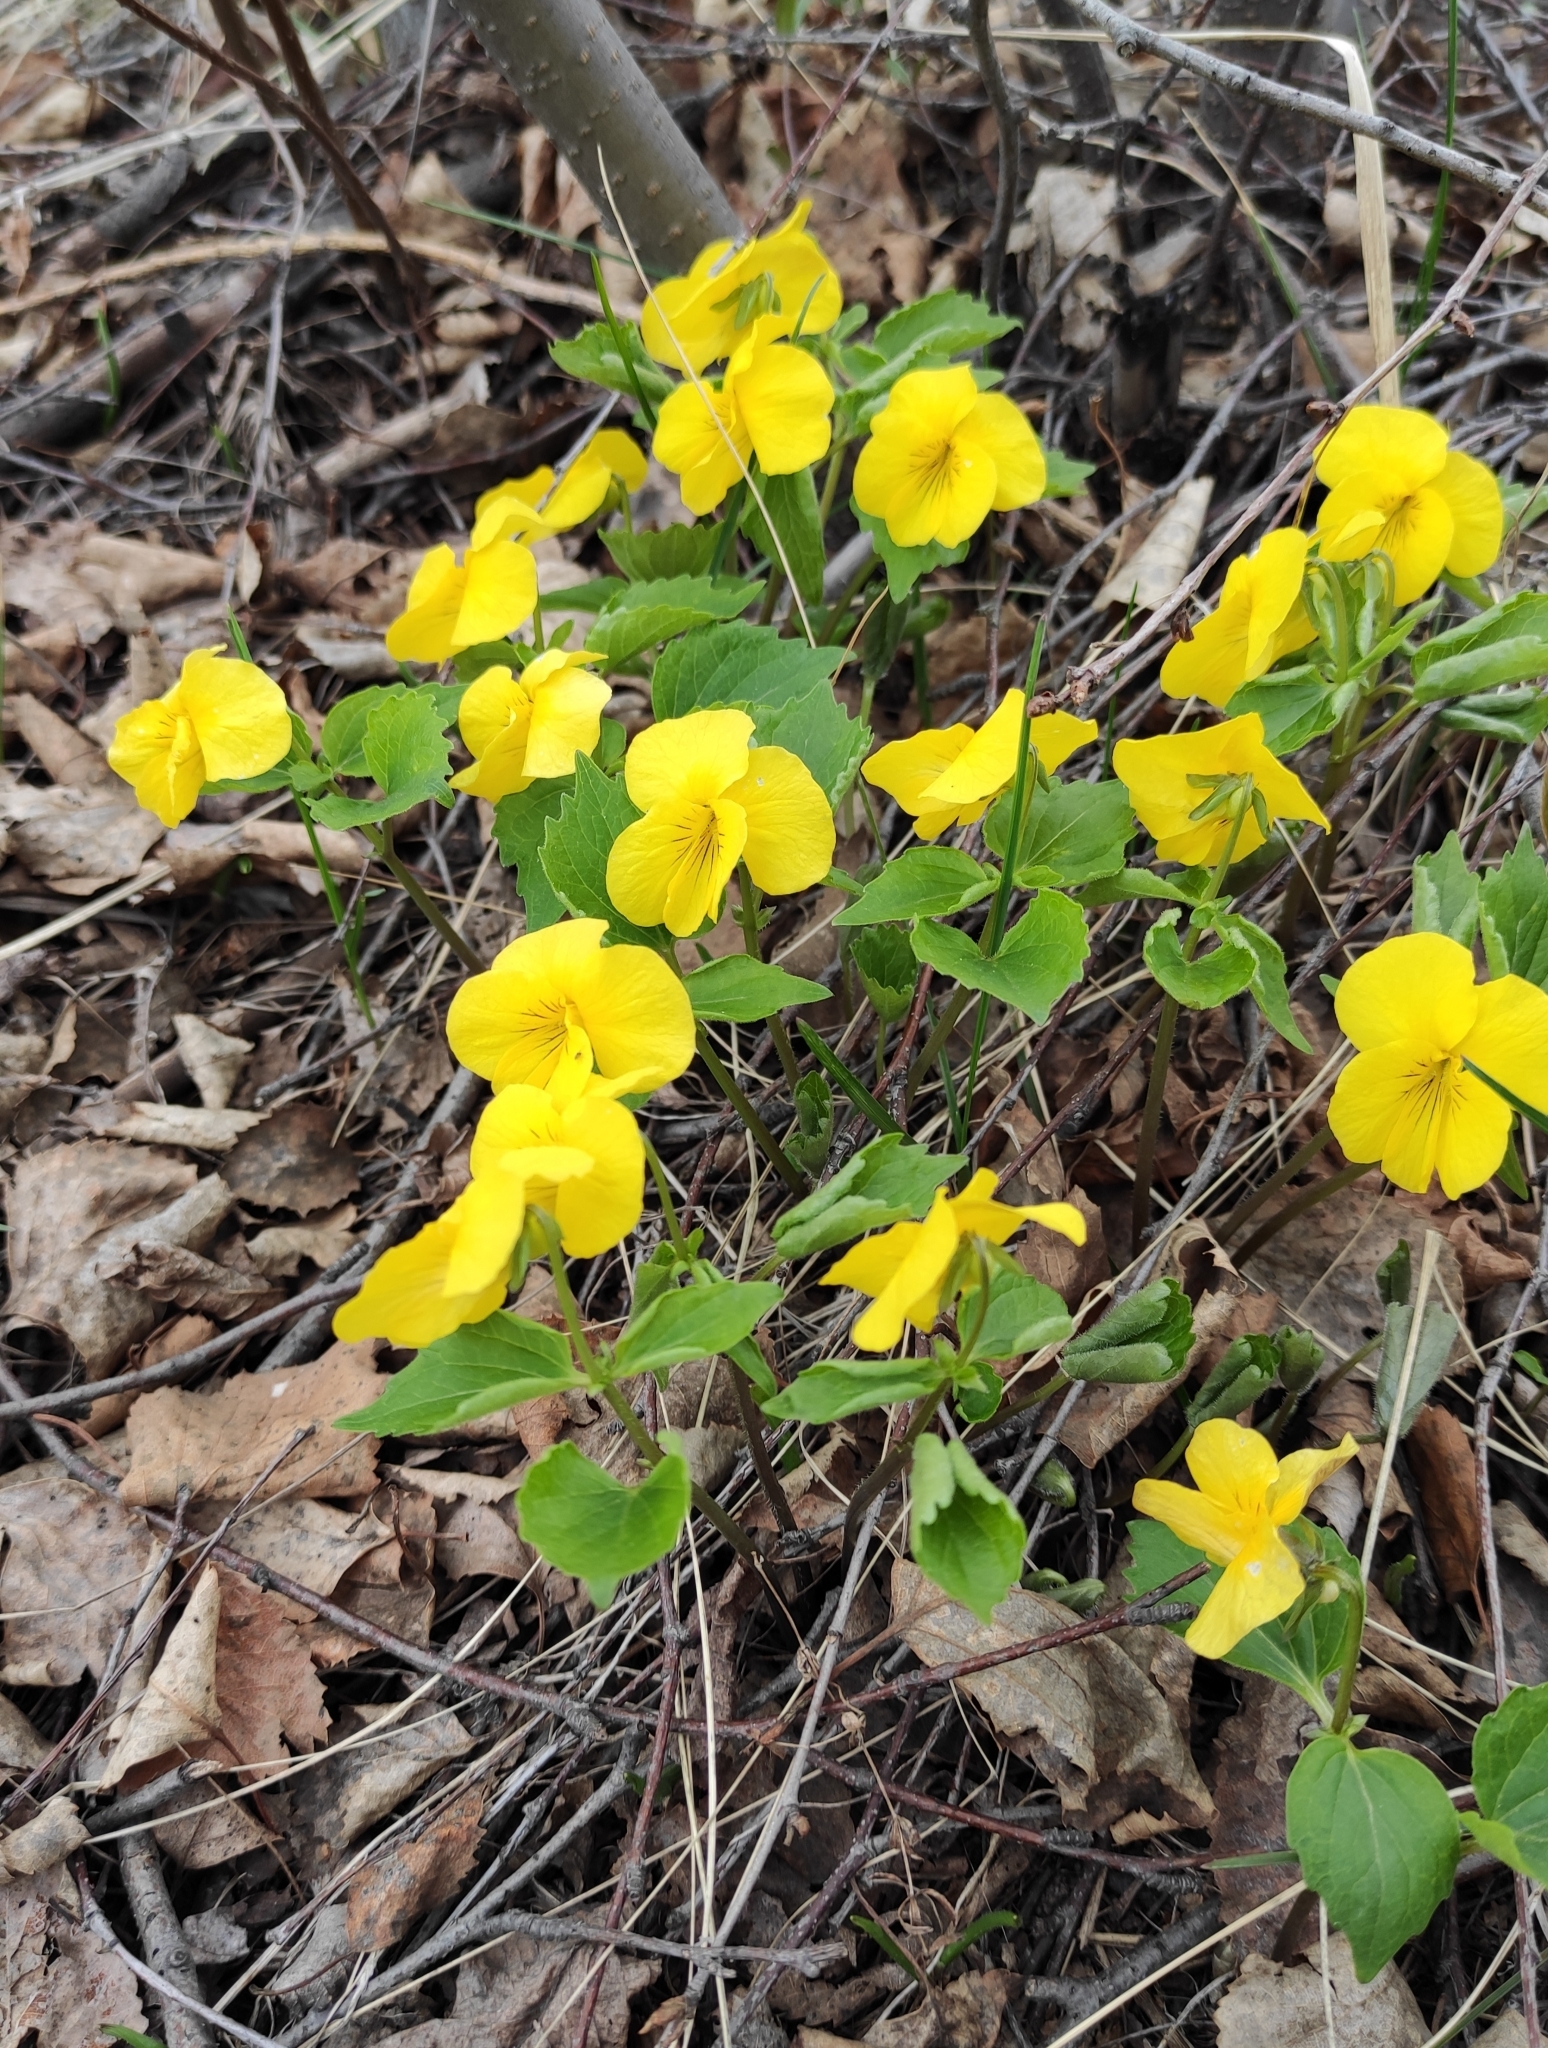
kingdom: Plantae
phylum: Tracheophyta
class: Magnoliopsida
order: Malpighiales
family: Violaceae
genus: Viola
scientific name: Viola uniflora
